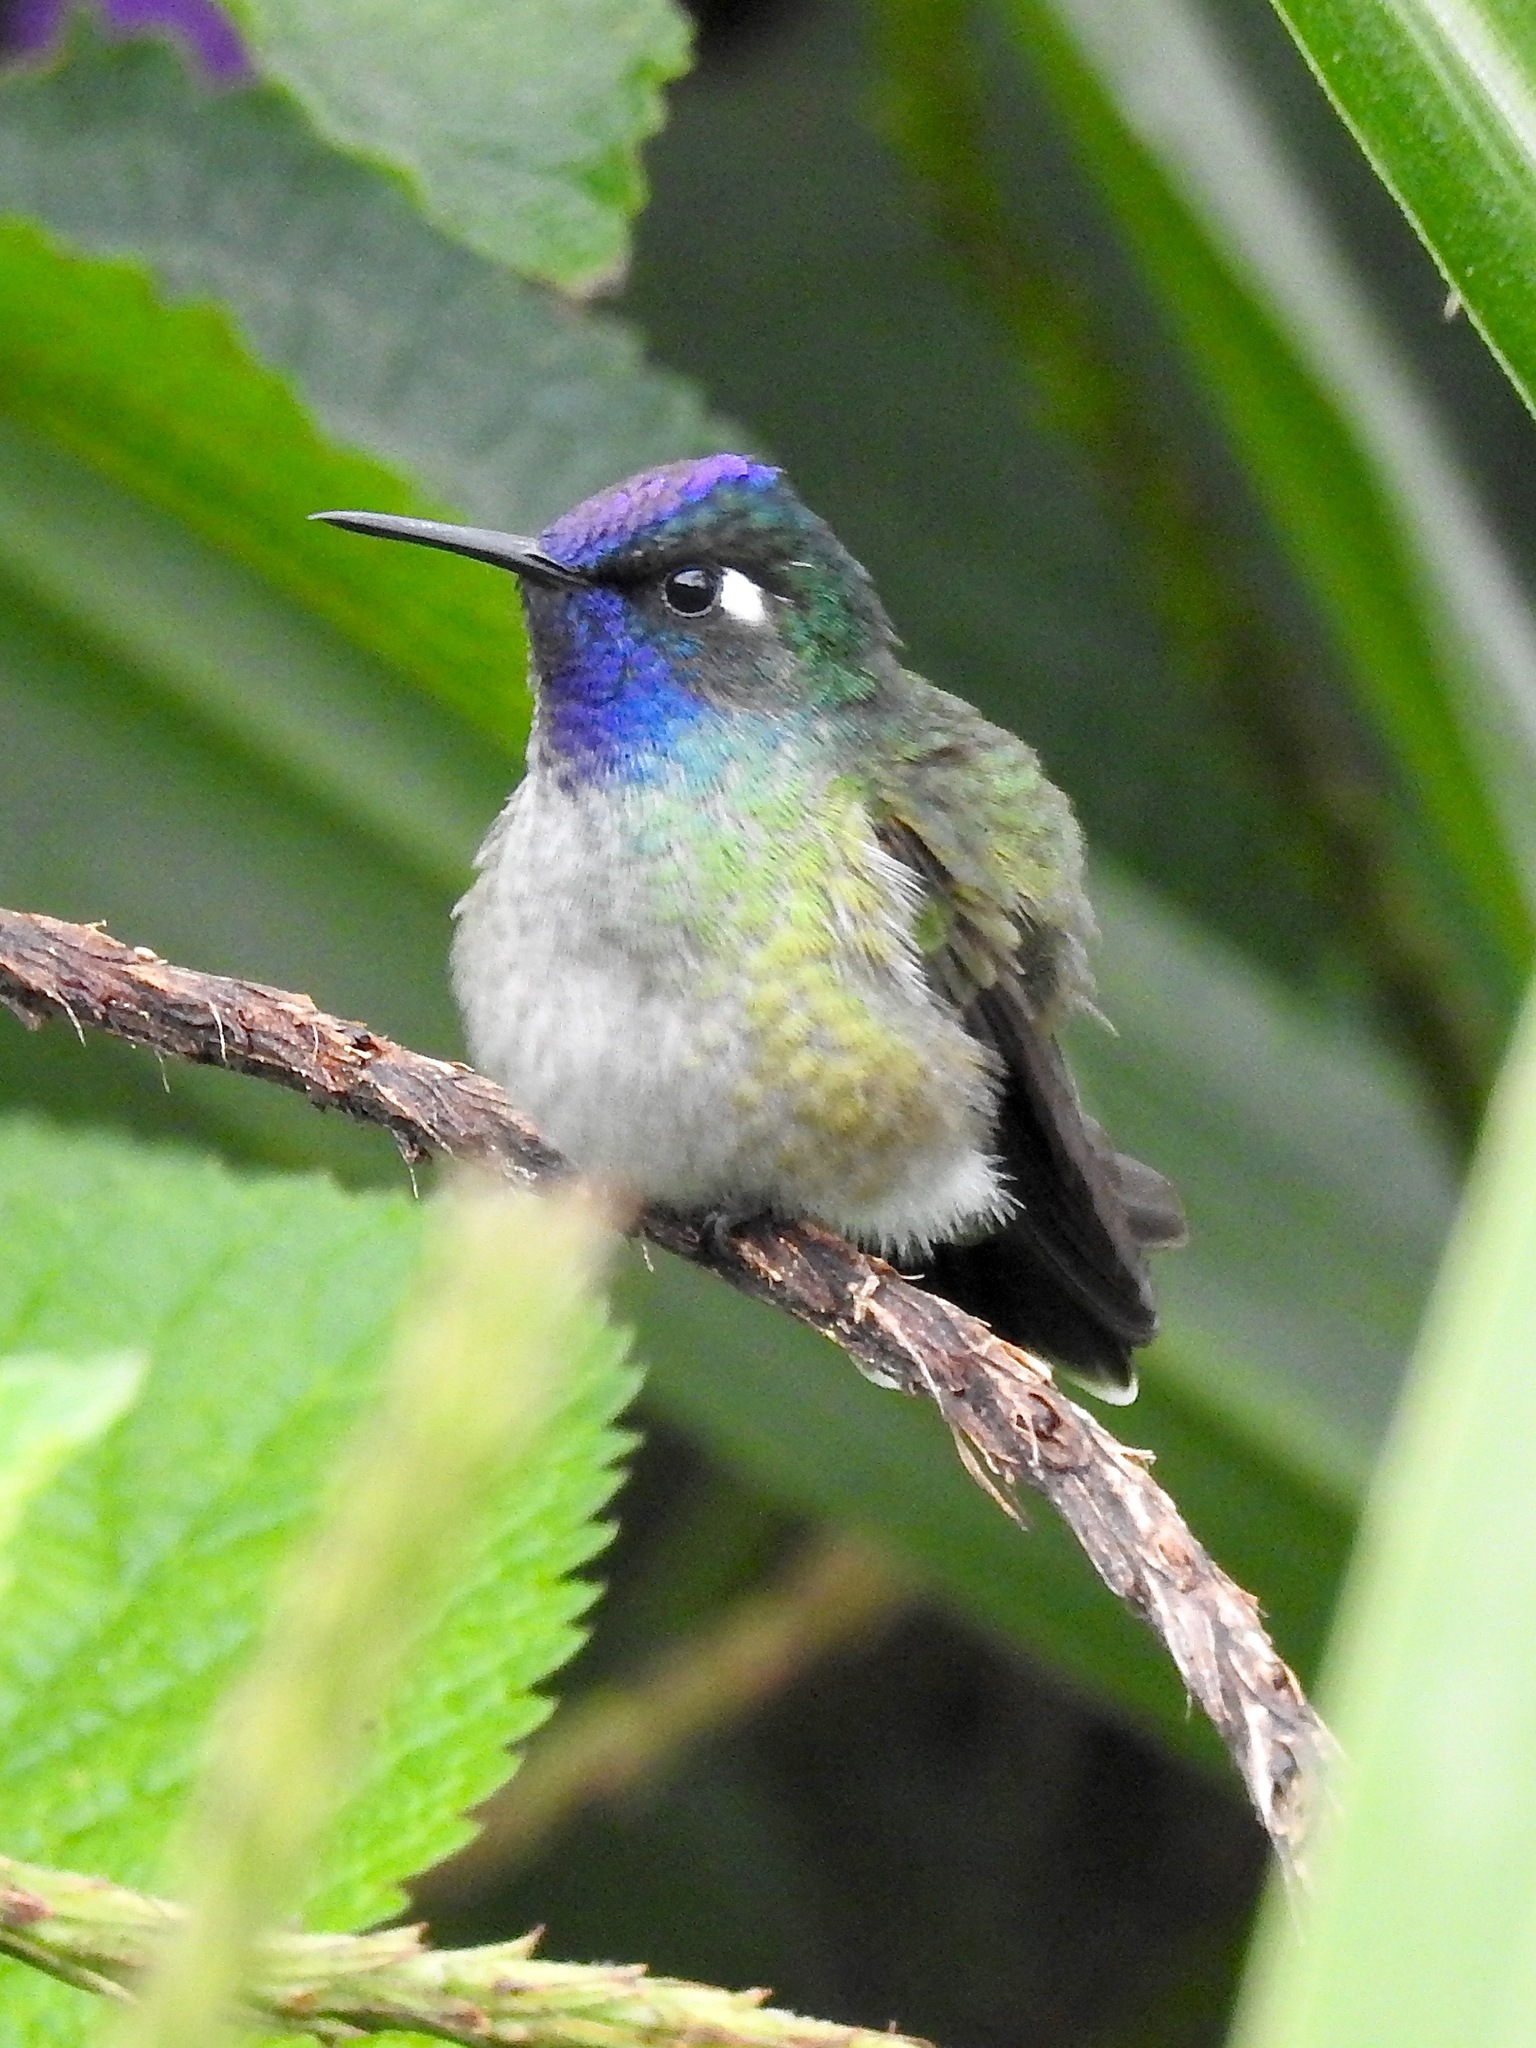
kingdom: Animalia
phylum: Chordata
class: Aves
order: Apodiformes
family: Trochilidae
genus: Klais
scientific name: Klais guimeti
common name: Violet-headed hummingbird
